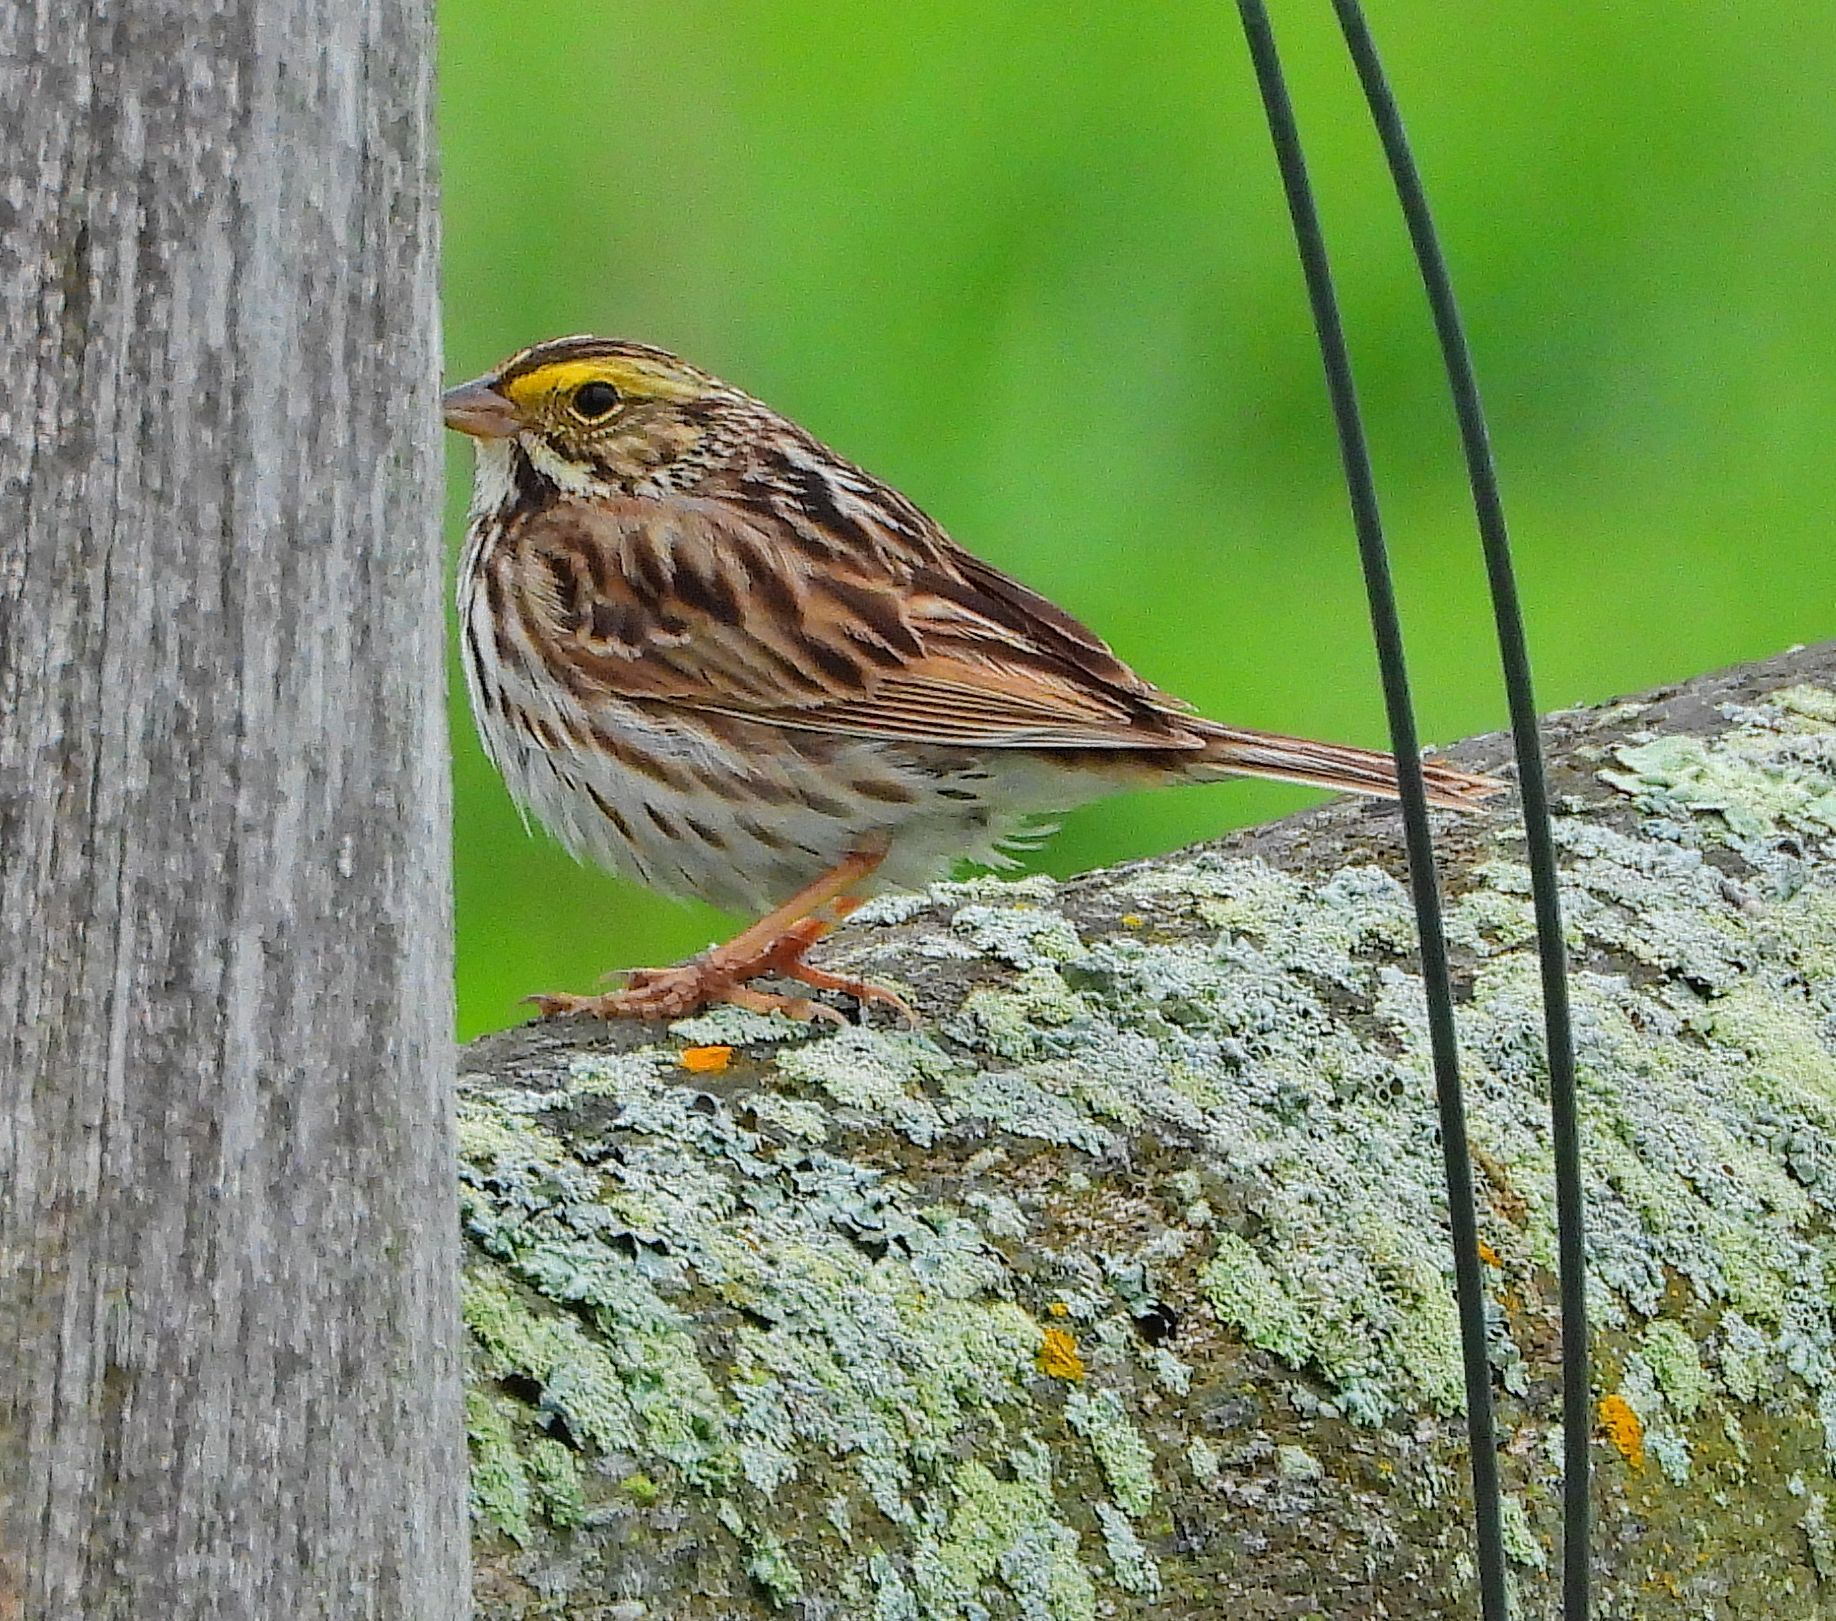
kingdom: Animalia
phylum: Chordata
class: Aves
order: Passeriformes
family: Passerellidae
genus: Passerculus
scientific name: Passerculus sandwichensis
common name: Savannah sparrow
